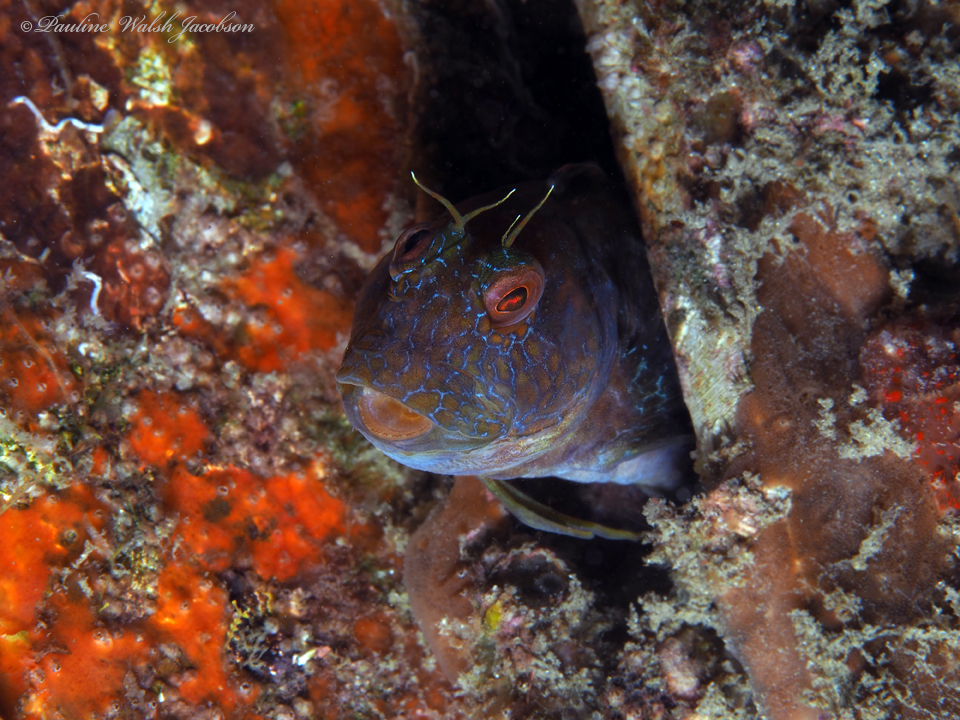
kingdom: Animalia
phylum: Chordata
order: Perciformes
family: Blenniidae
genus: Parablennius
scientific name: Parablennius marmoreus
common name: Seaweed blenny
